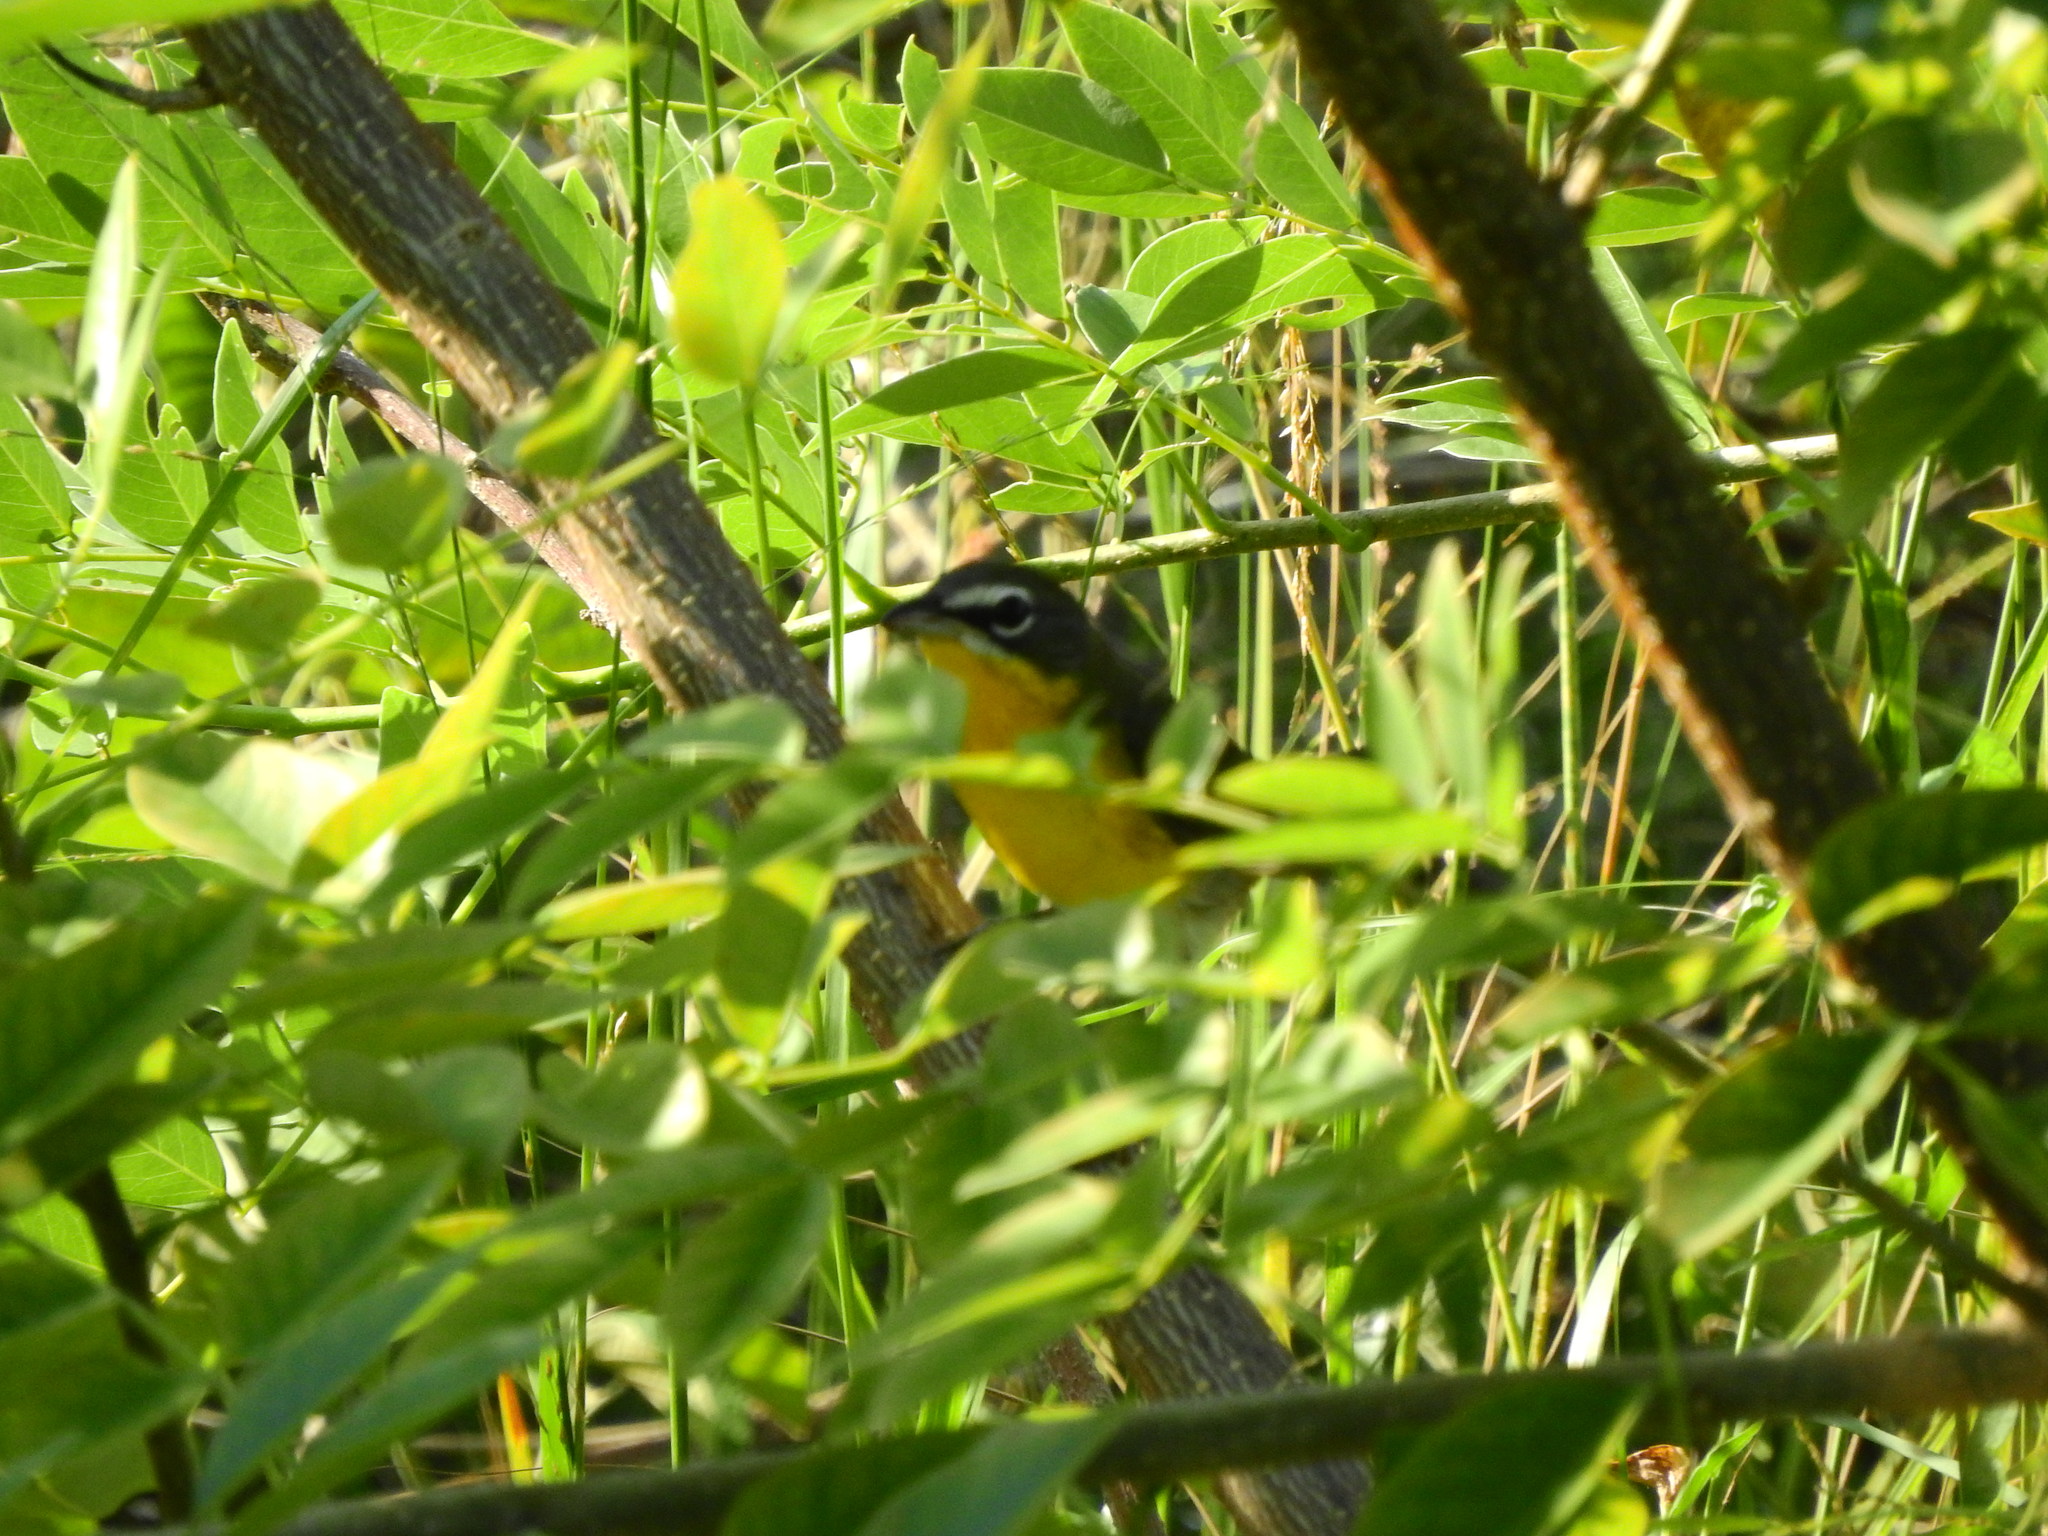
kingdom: Animalia
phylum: Chordata
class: Aves
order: Passeriformes
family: Parulidae
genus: Icteria
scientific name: Icteria virens
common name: Yellow-breasted chat
